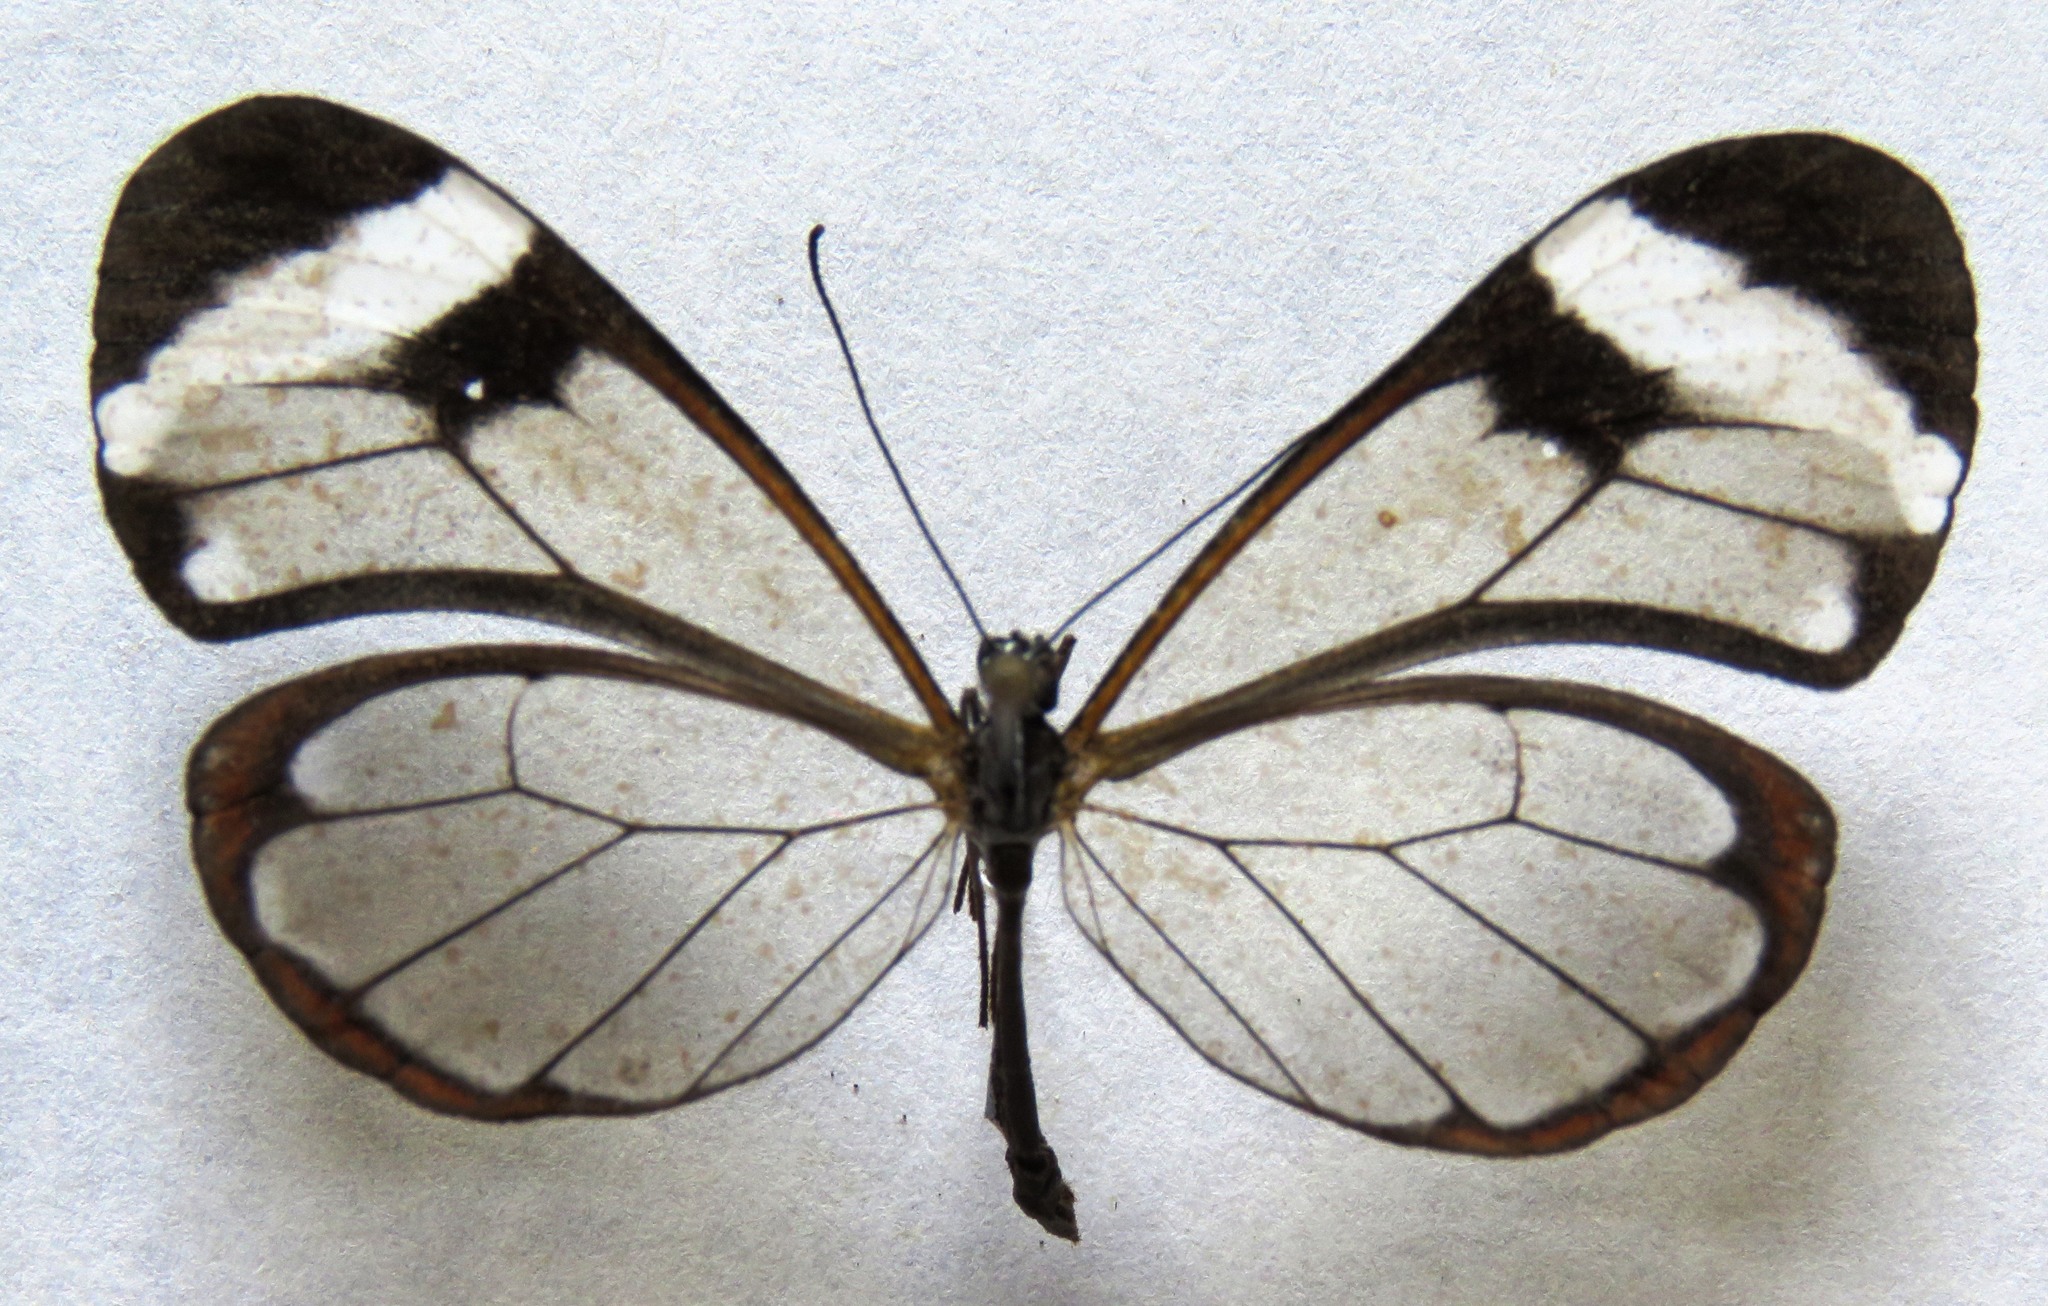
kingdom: Animalia
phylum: Arthropoda
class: Insecta
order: Lepidoptera
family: Nymphalidae
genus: Greta
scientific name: Greta morgane
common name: Thick-tipped greta
